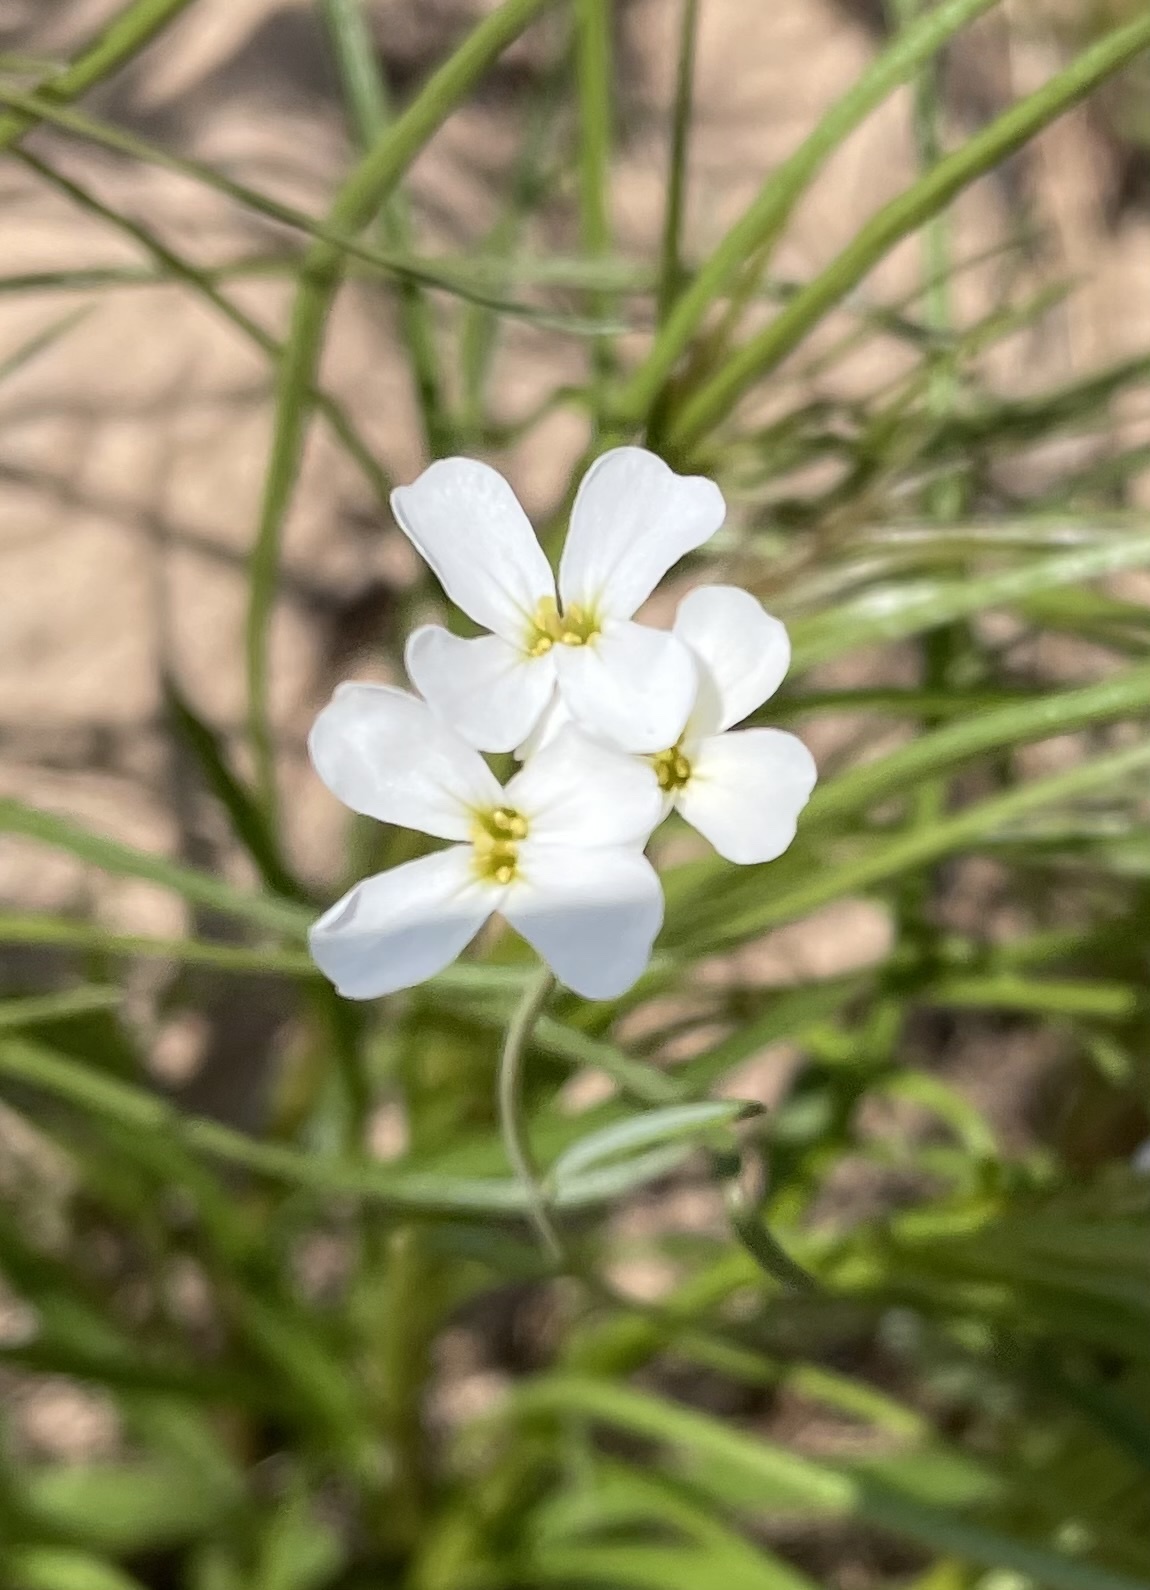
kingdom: Plantae
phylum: Tracheophyta
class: Magnoliopsida
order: Brassicales
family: Brassicaceae
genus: Arabidopsis
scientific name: Arabidopsis lyrata
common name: Lyrate rockcress
